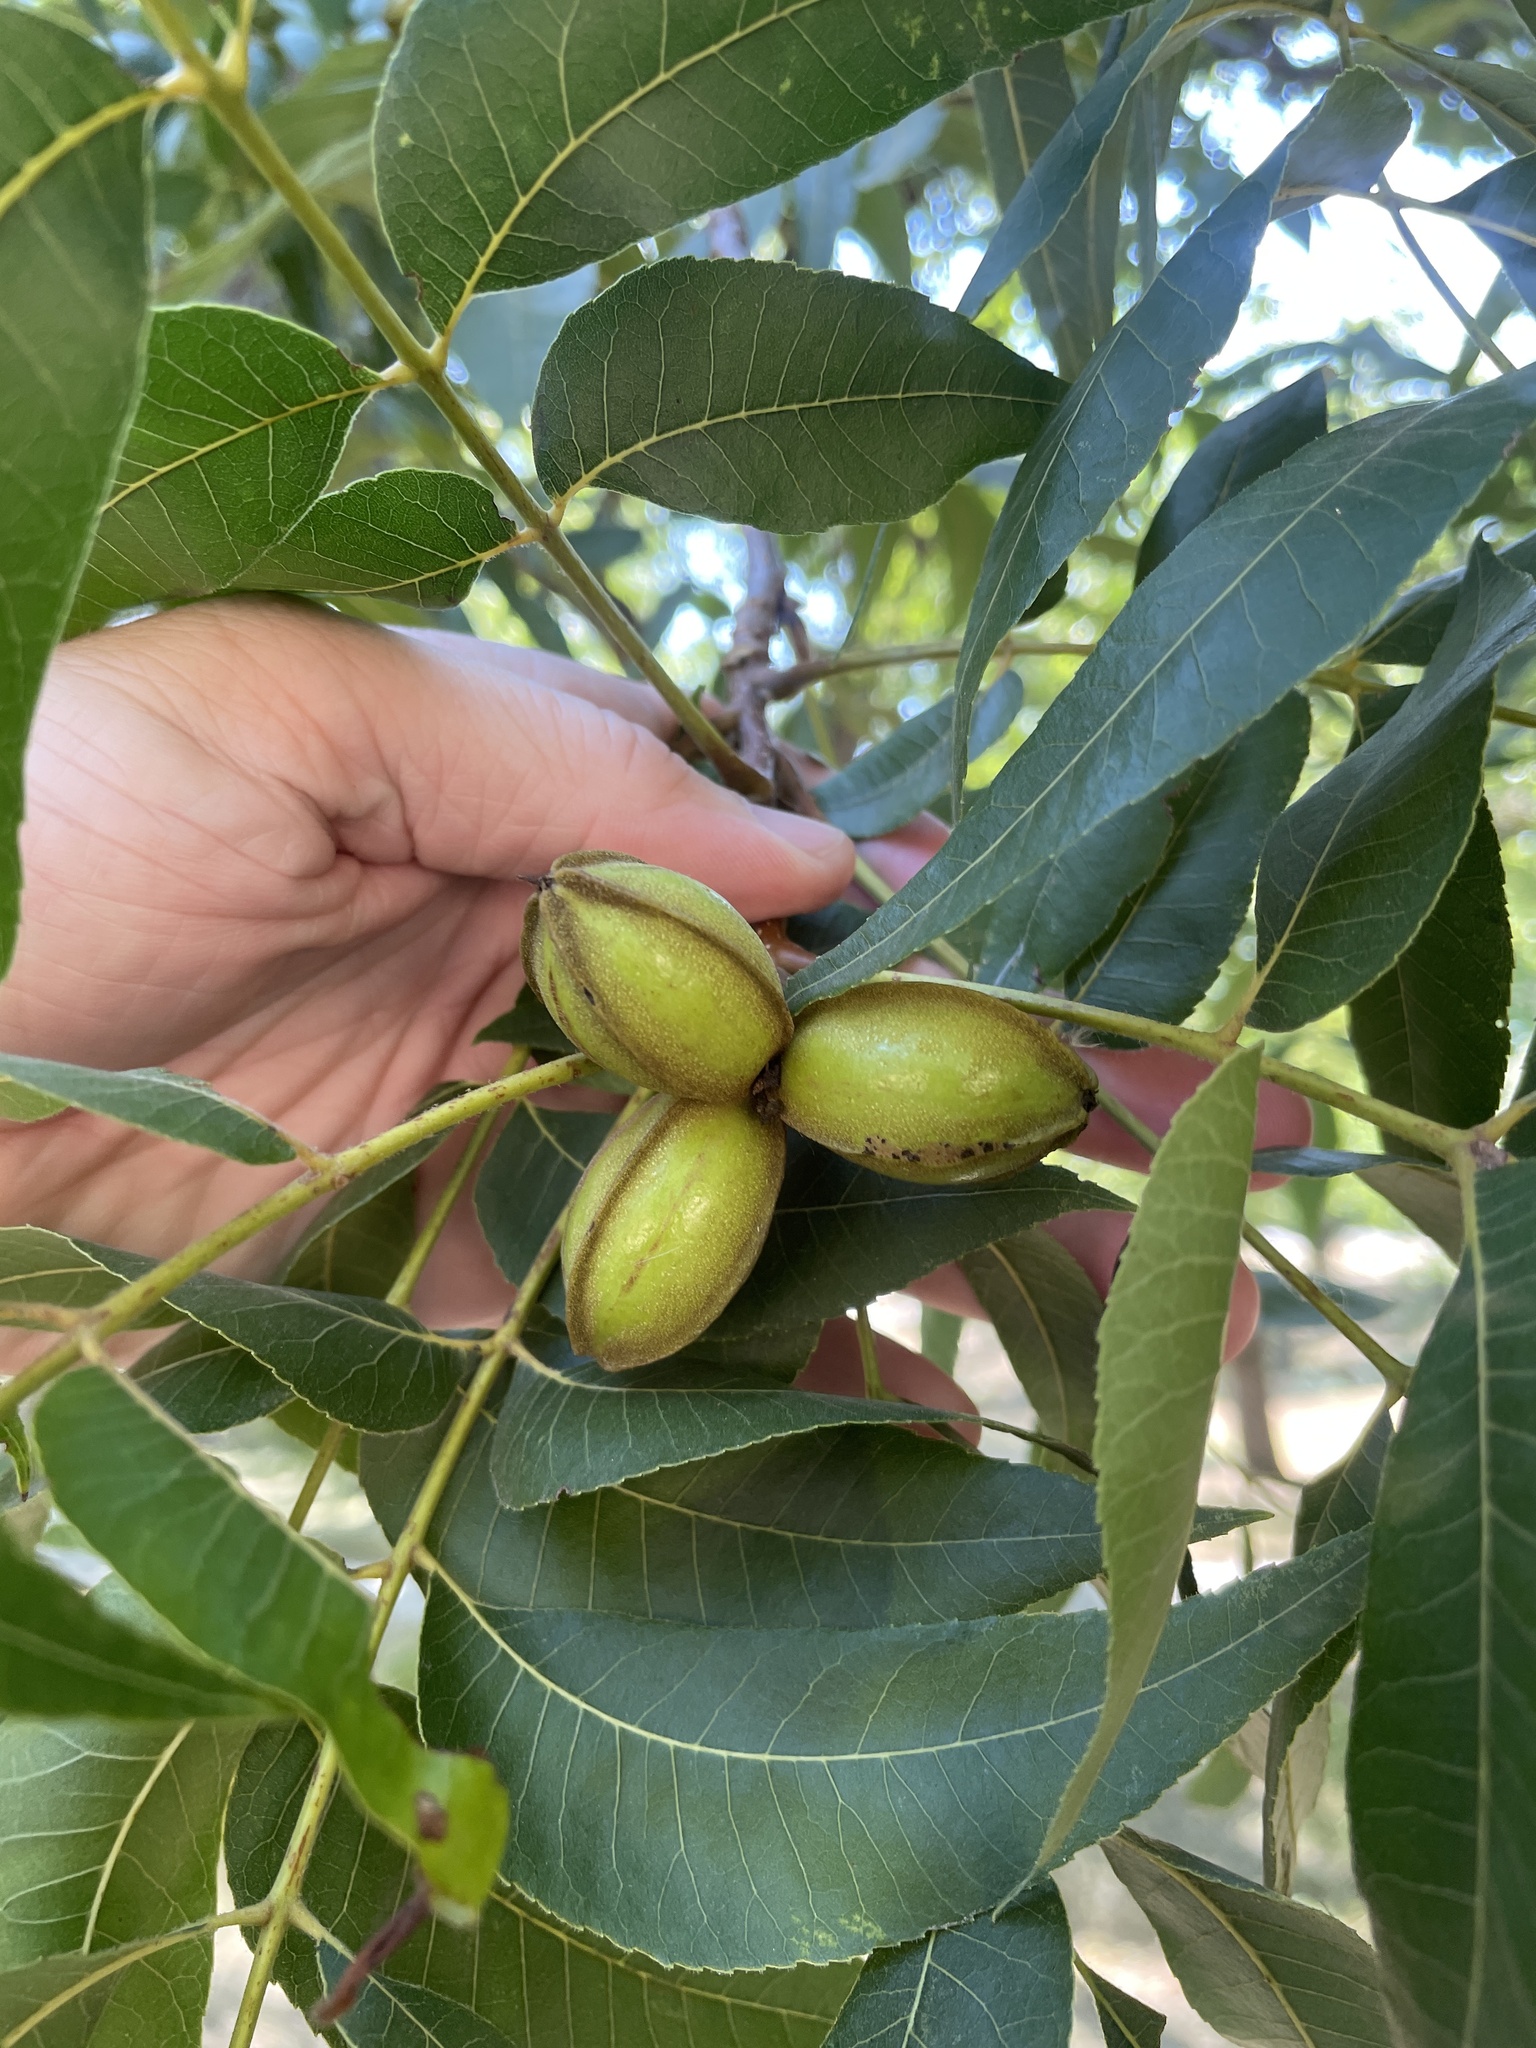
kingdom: Plantae
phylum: Tracheophyta
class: Magnoliopsida
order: Fagales
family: Juglandaceae
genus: Carya
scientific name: Carya illinoinensis
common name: Pecan
